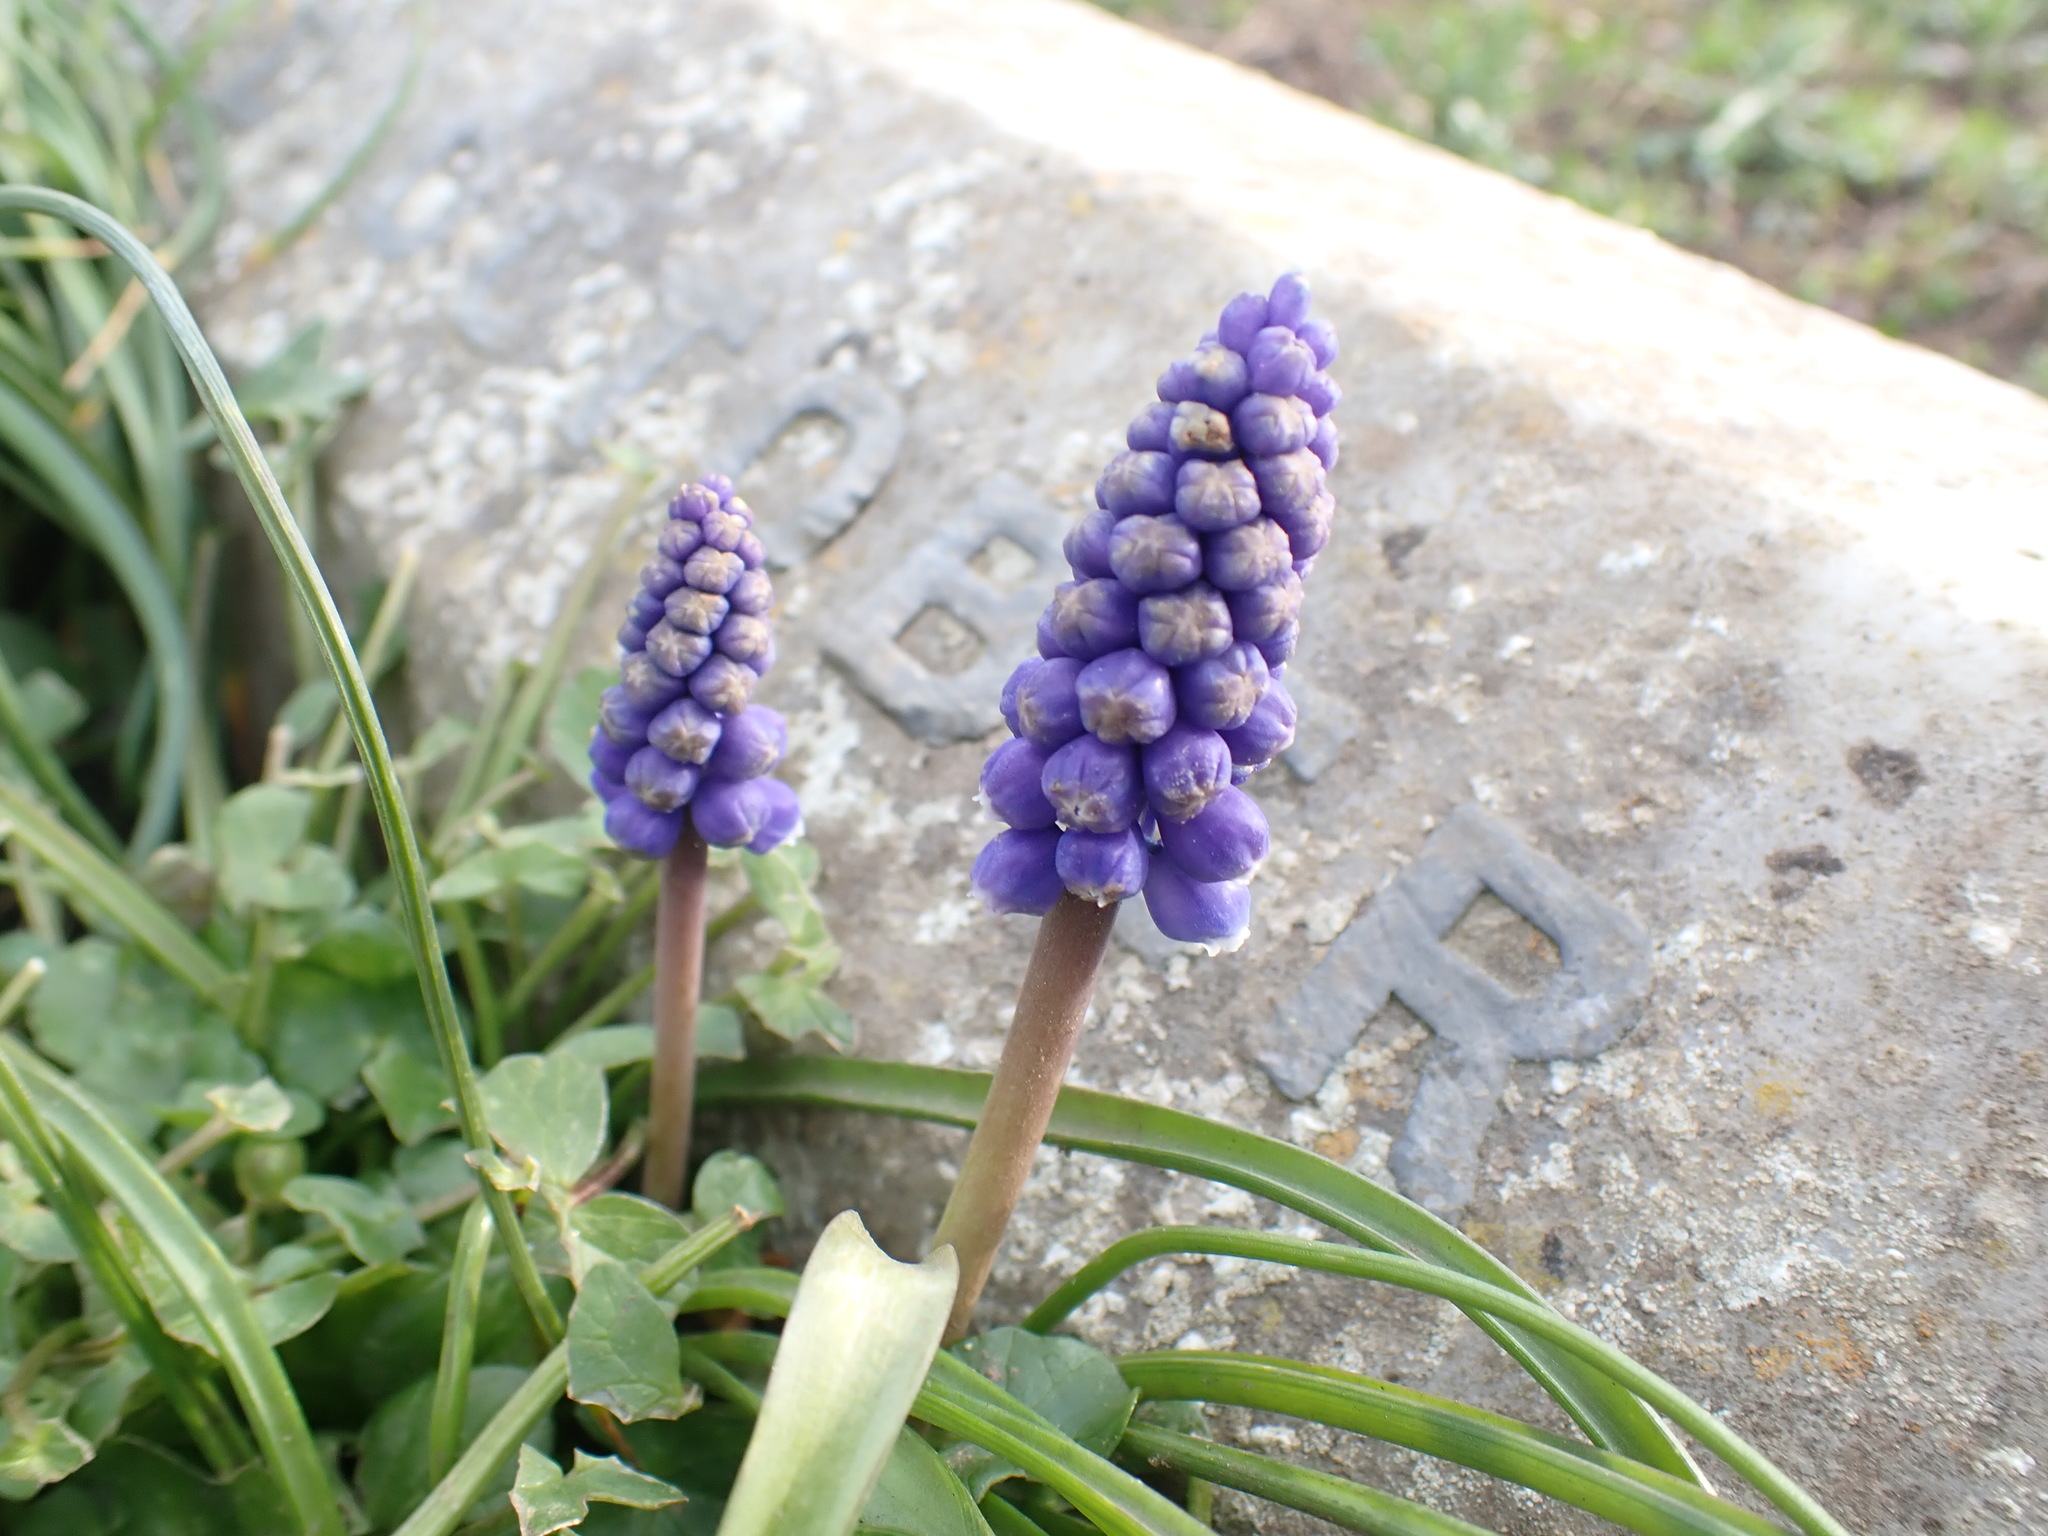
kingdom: Plantae
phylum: Tracheophyta
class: Liliopsida
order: Asparagales
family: Asparagaceae
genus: Muscari
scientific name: Muscari armeniacum
